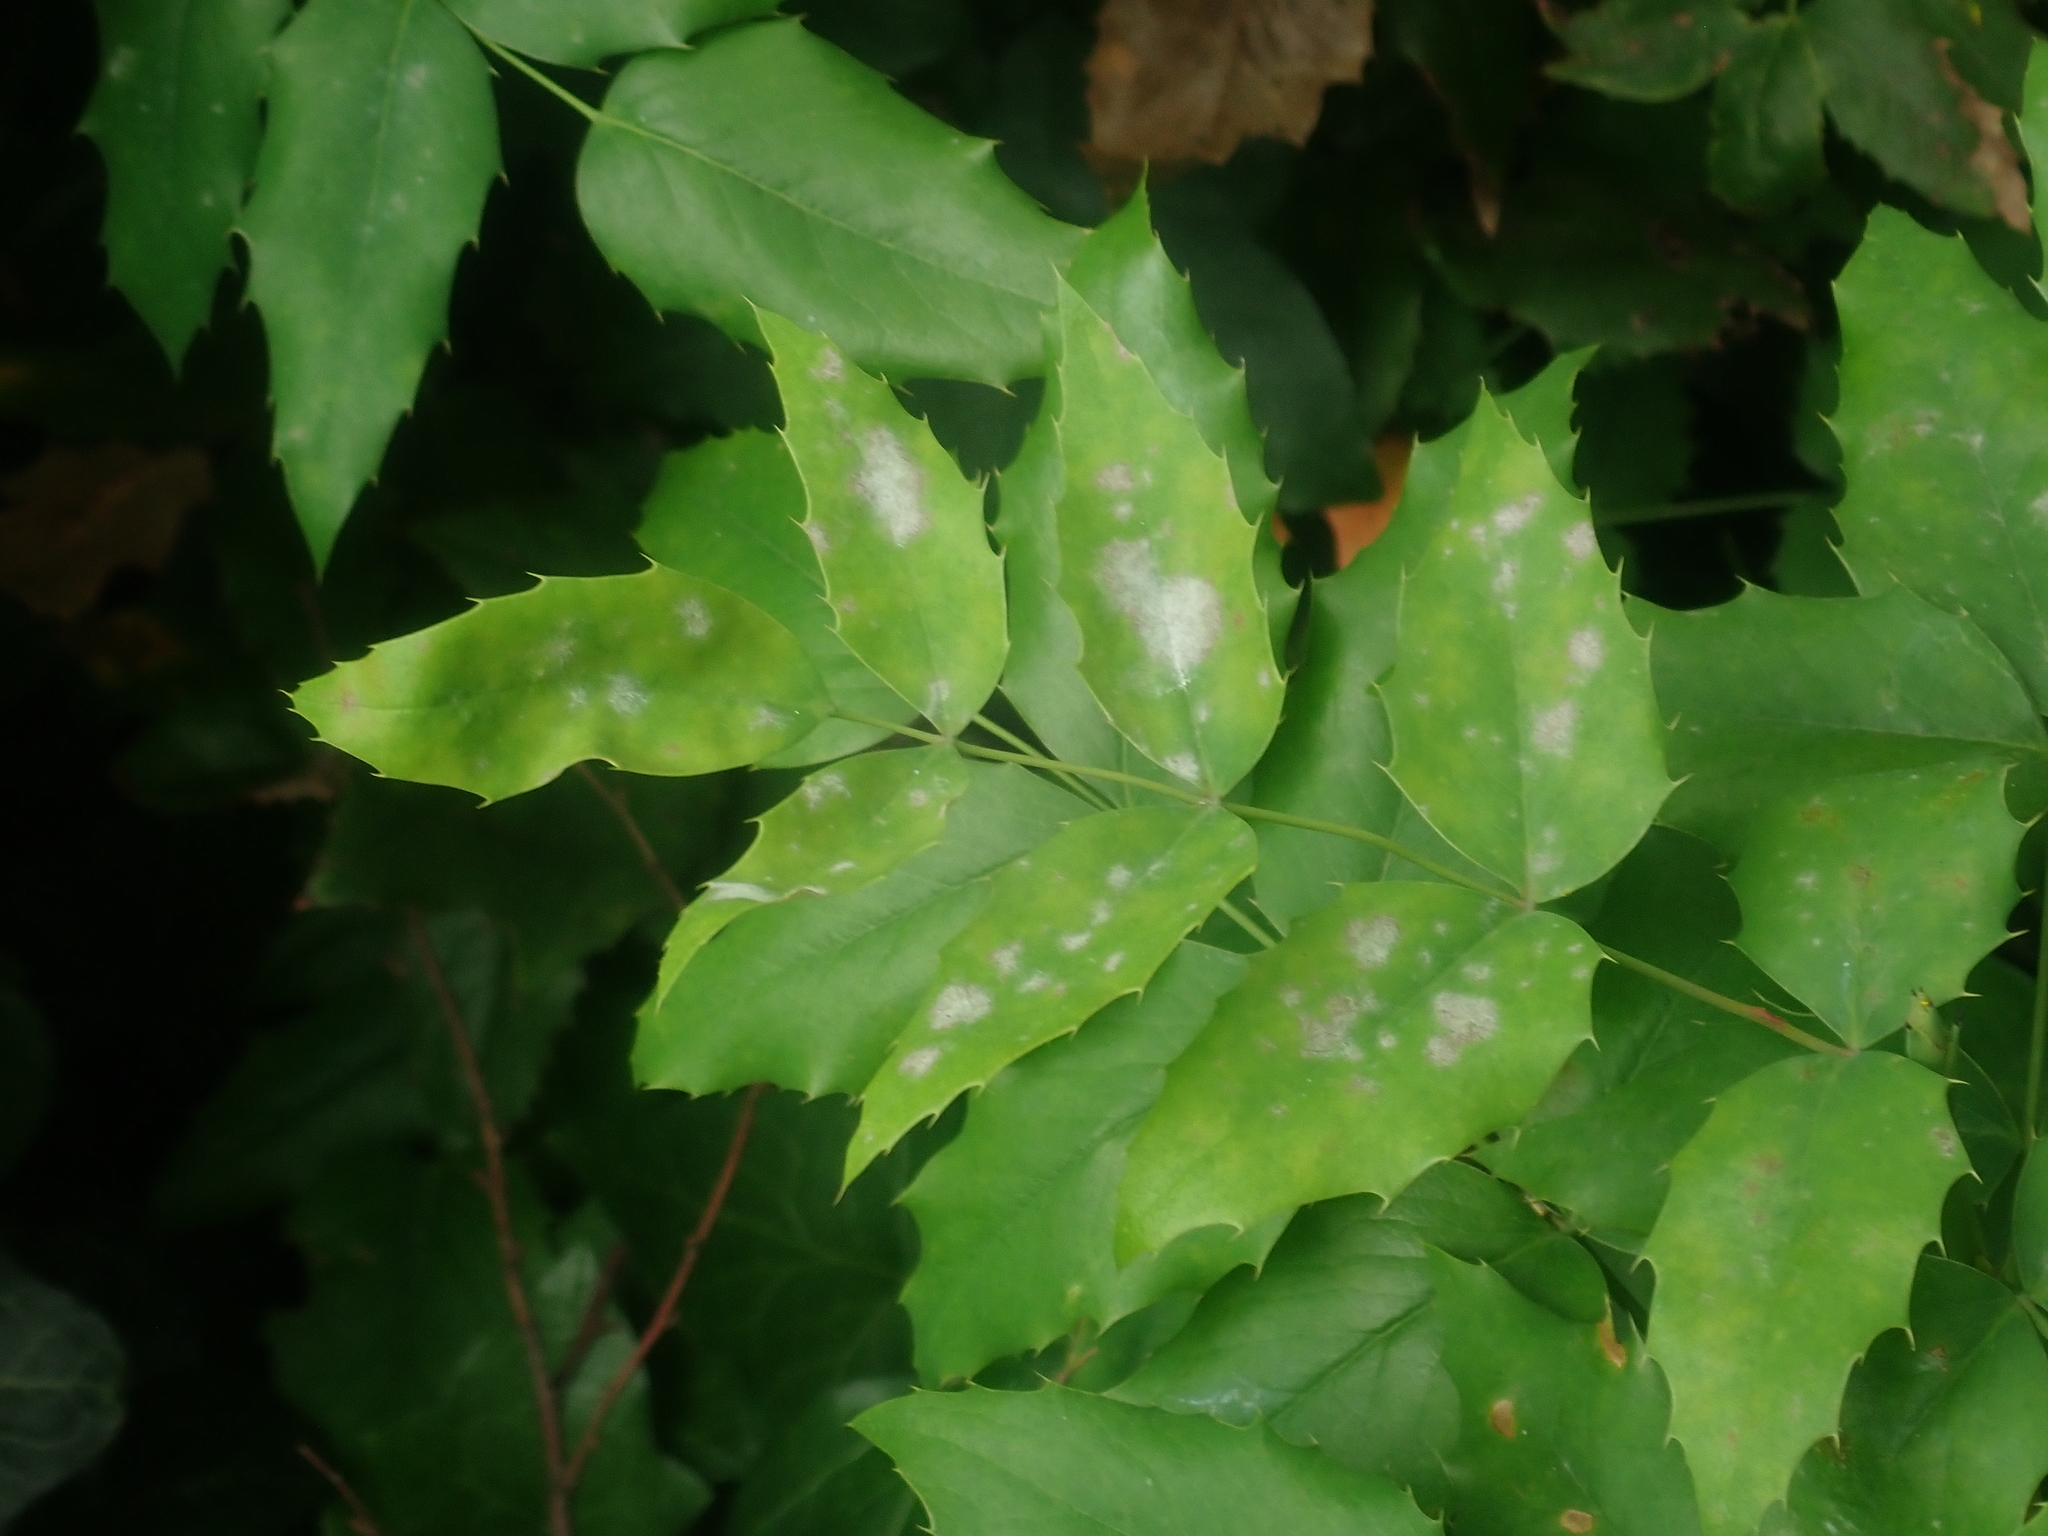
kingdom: Fungi
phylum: Ascomycota
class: Leotiomycetes
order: Helotiales
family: Erysiphaceae
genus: Erysiphe
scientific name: Erysiphe berberidis
